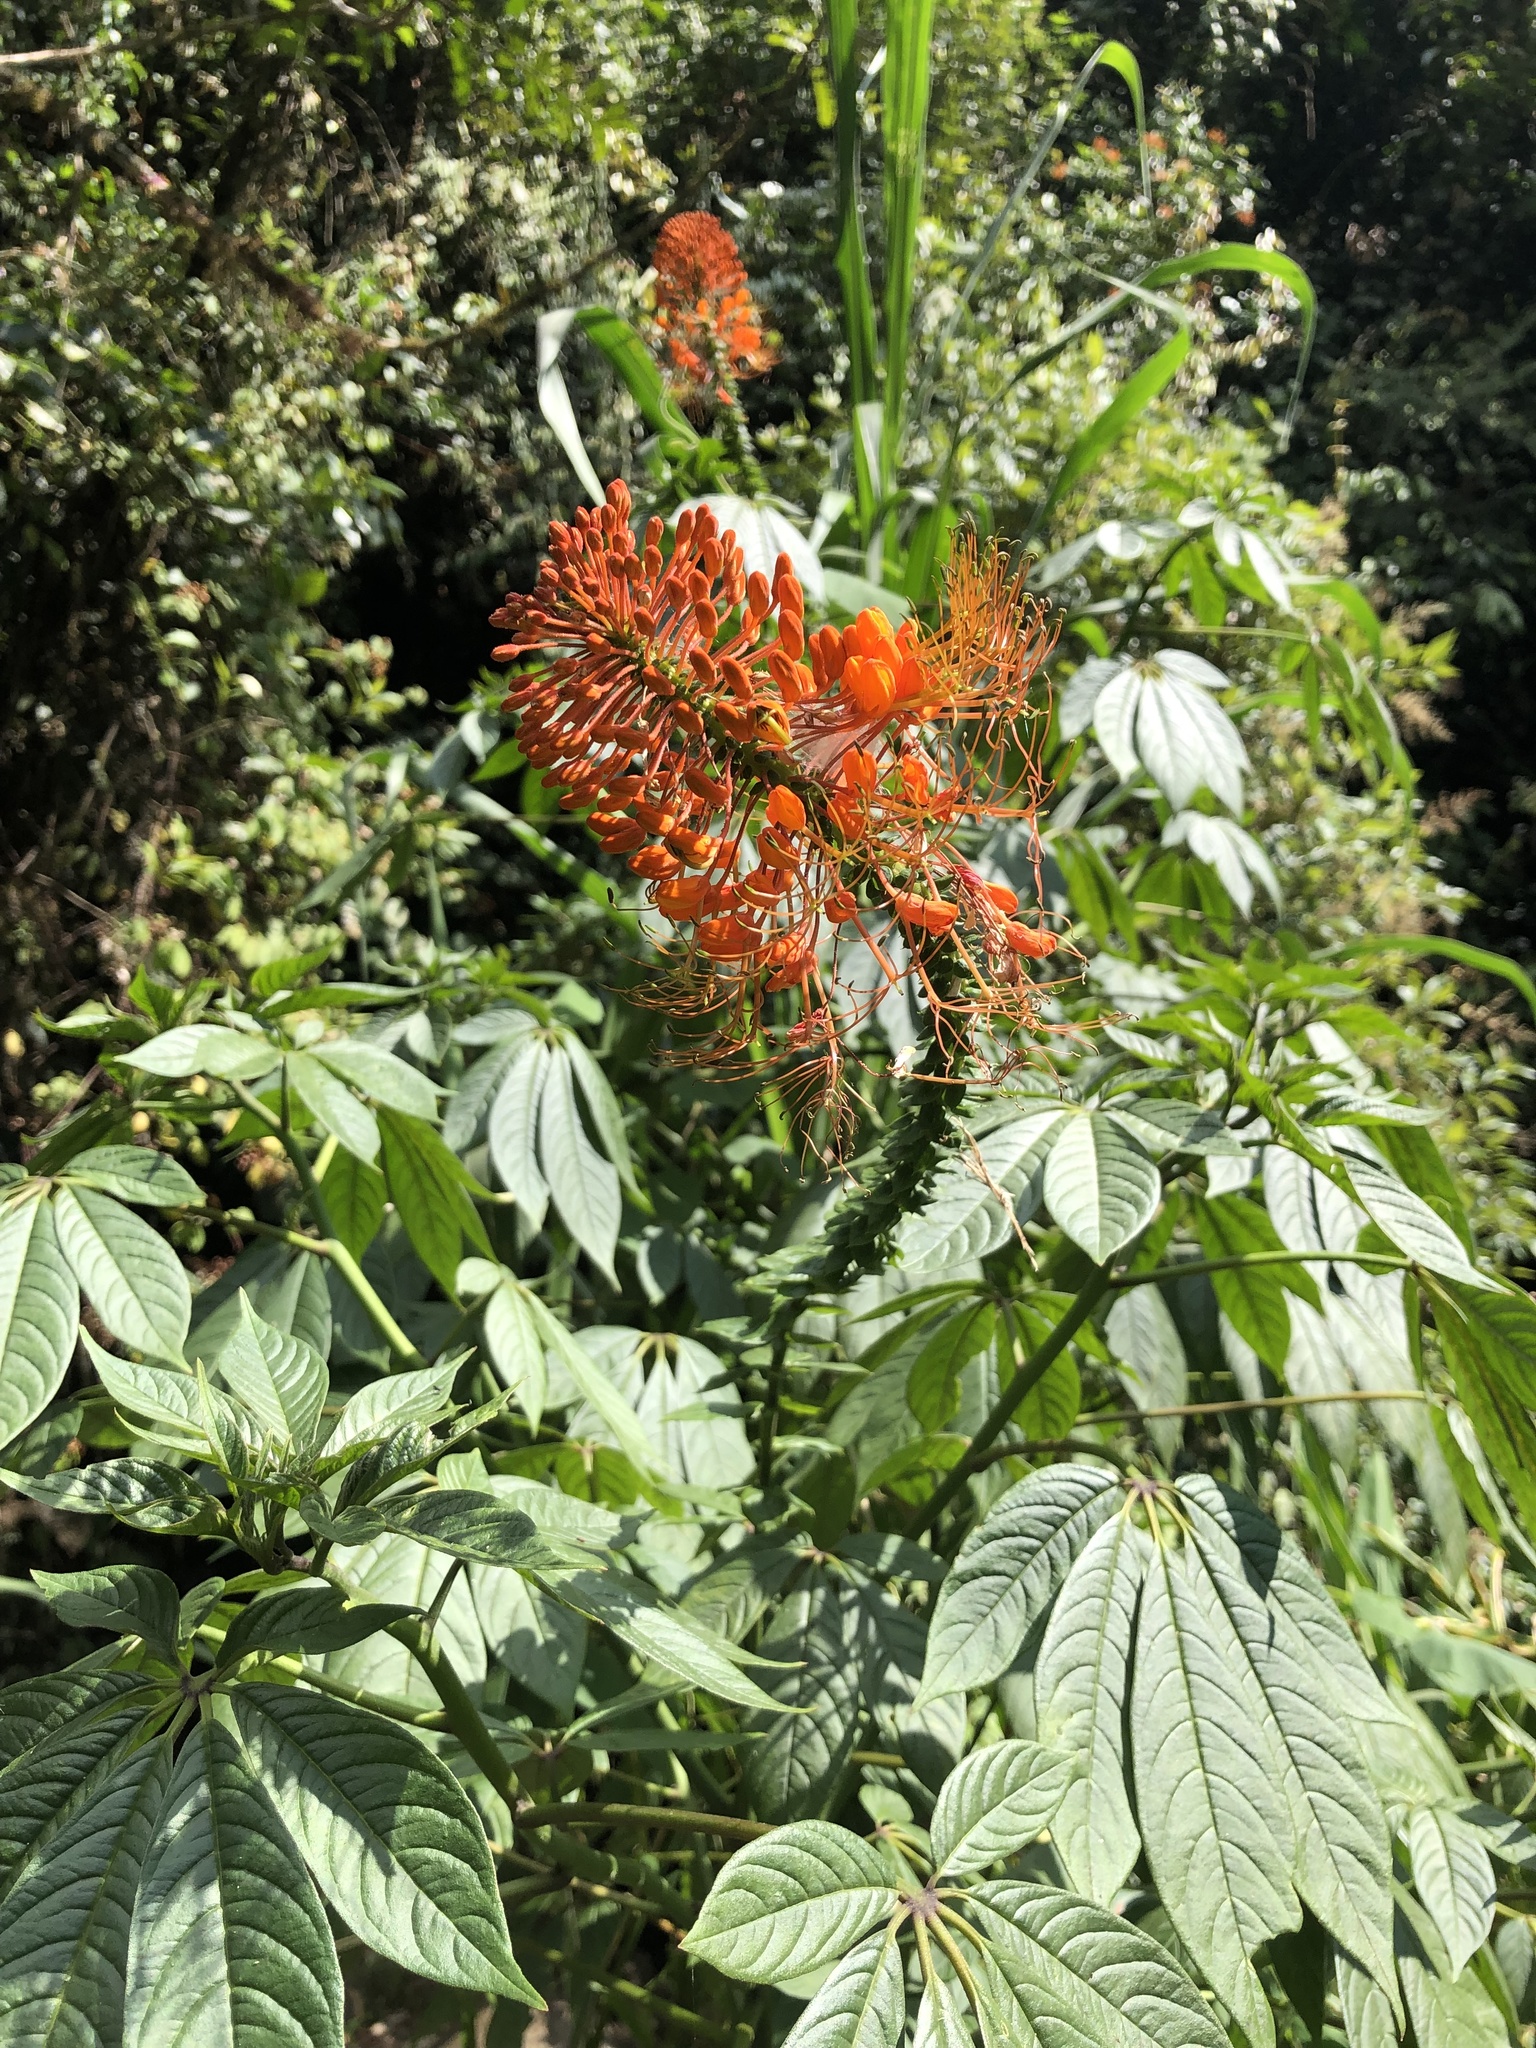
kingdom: Plantae
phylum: Tracheophyta
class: Magnoliopsida
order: Brassicales
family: Cleomaceae
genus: Podandrogyne
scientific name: Podandrogyne hispidula
